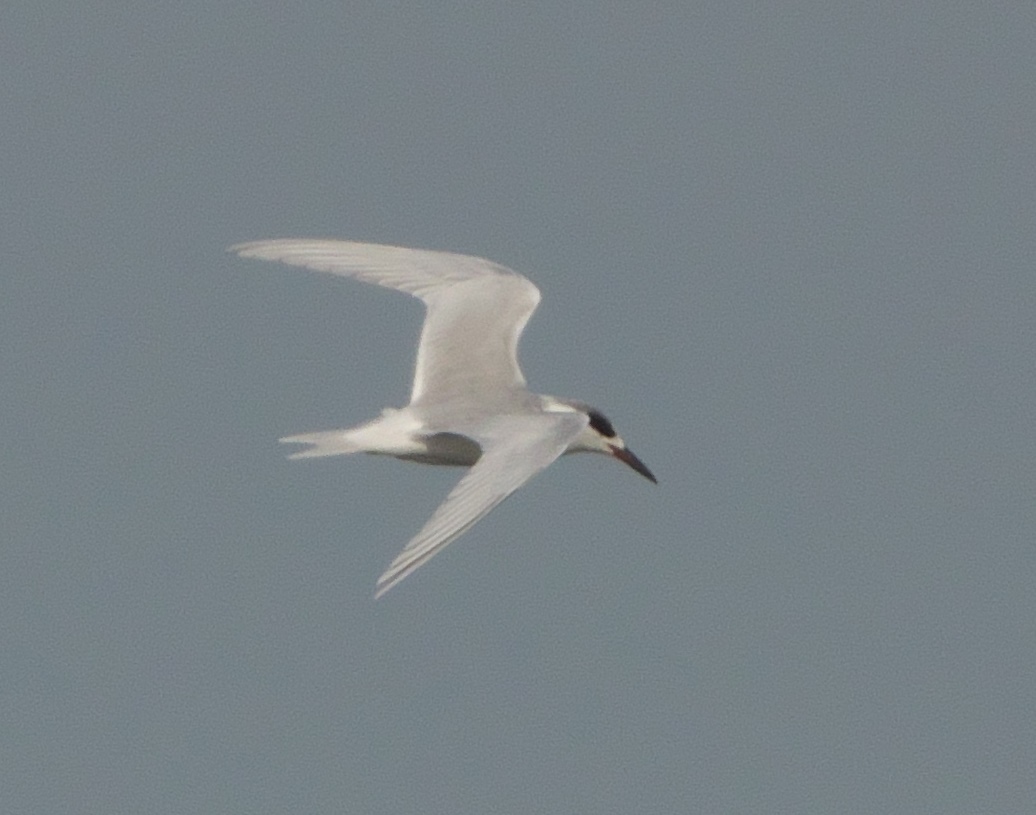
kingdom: Animalia
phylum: Chordata
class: Aves
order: Charadriiformes
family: Laridae
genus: Sterna
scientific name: Sterna forsteri
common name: Forster's tern
